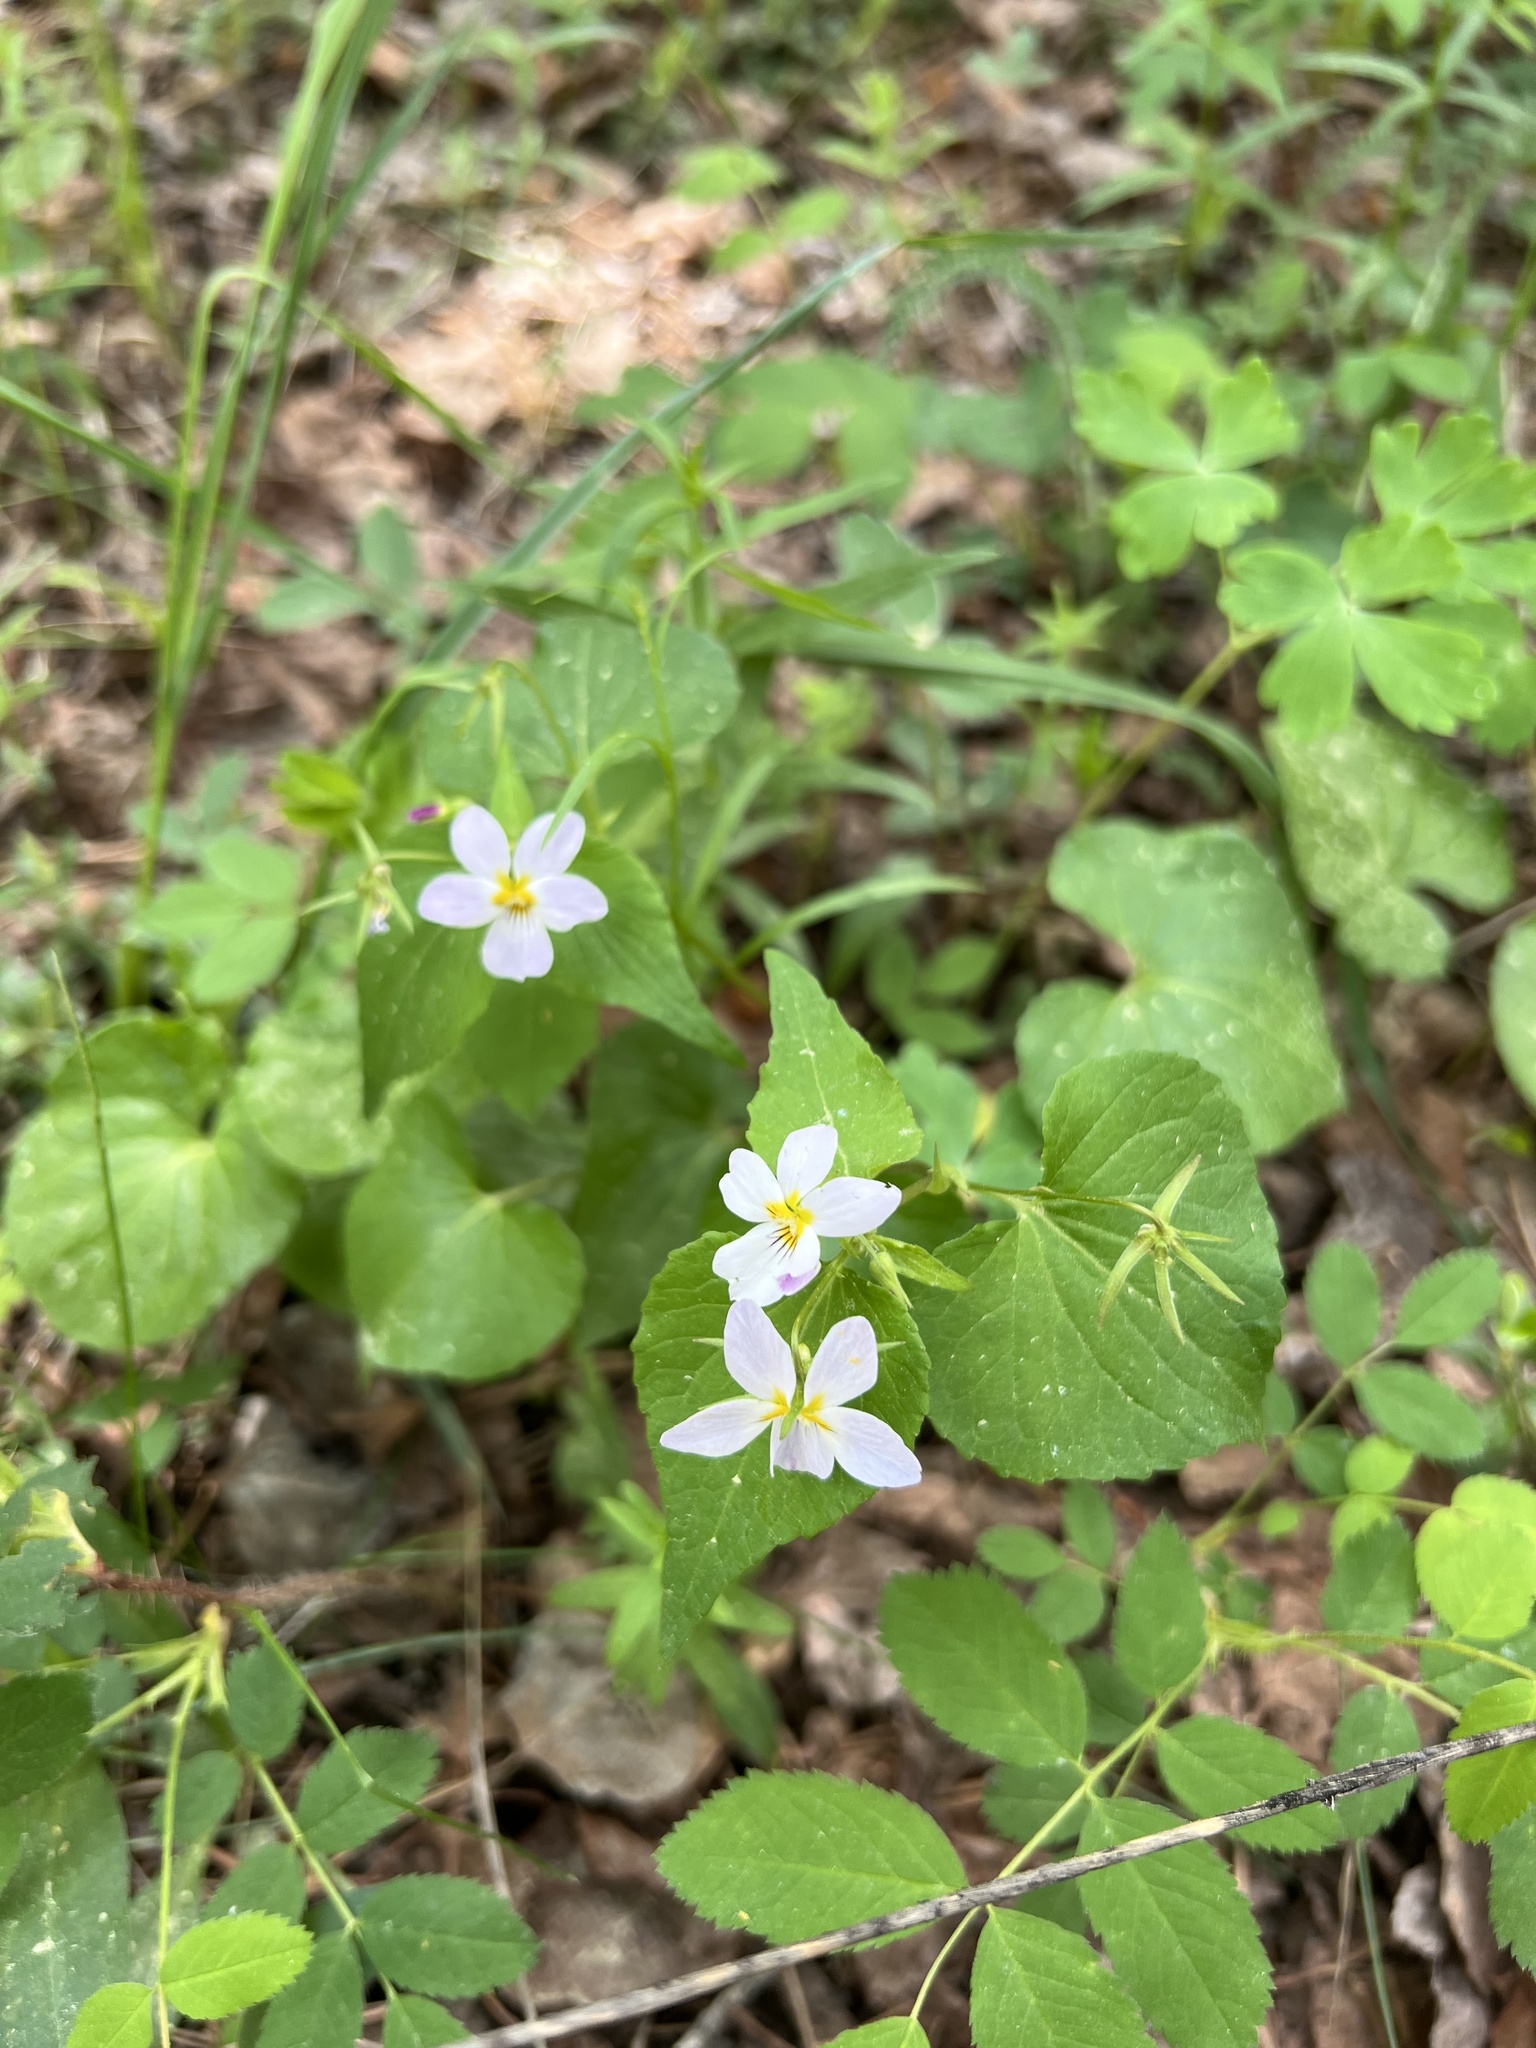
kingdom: Plantae
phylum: Tracheophyta
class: Magnoliopsida
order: Malpighiales
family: Violaceae
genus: Viola
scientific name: Viola canadensis
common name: Canada violet
